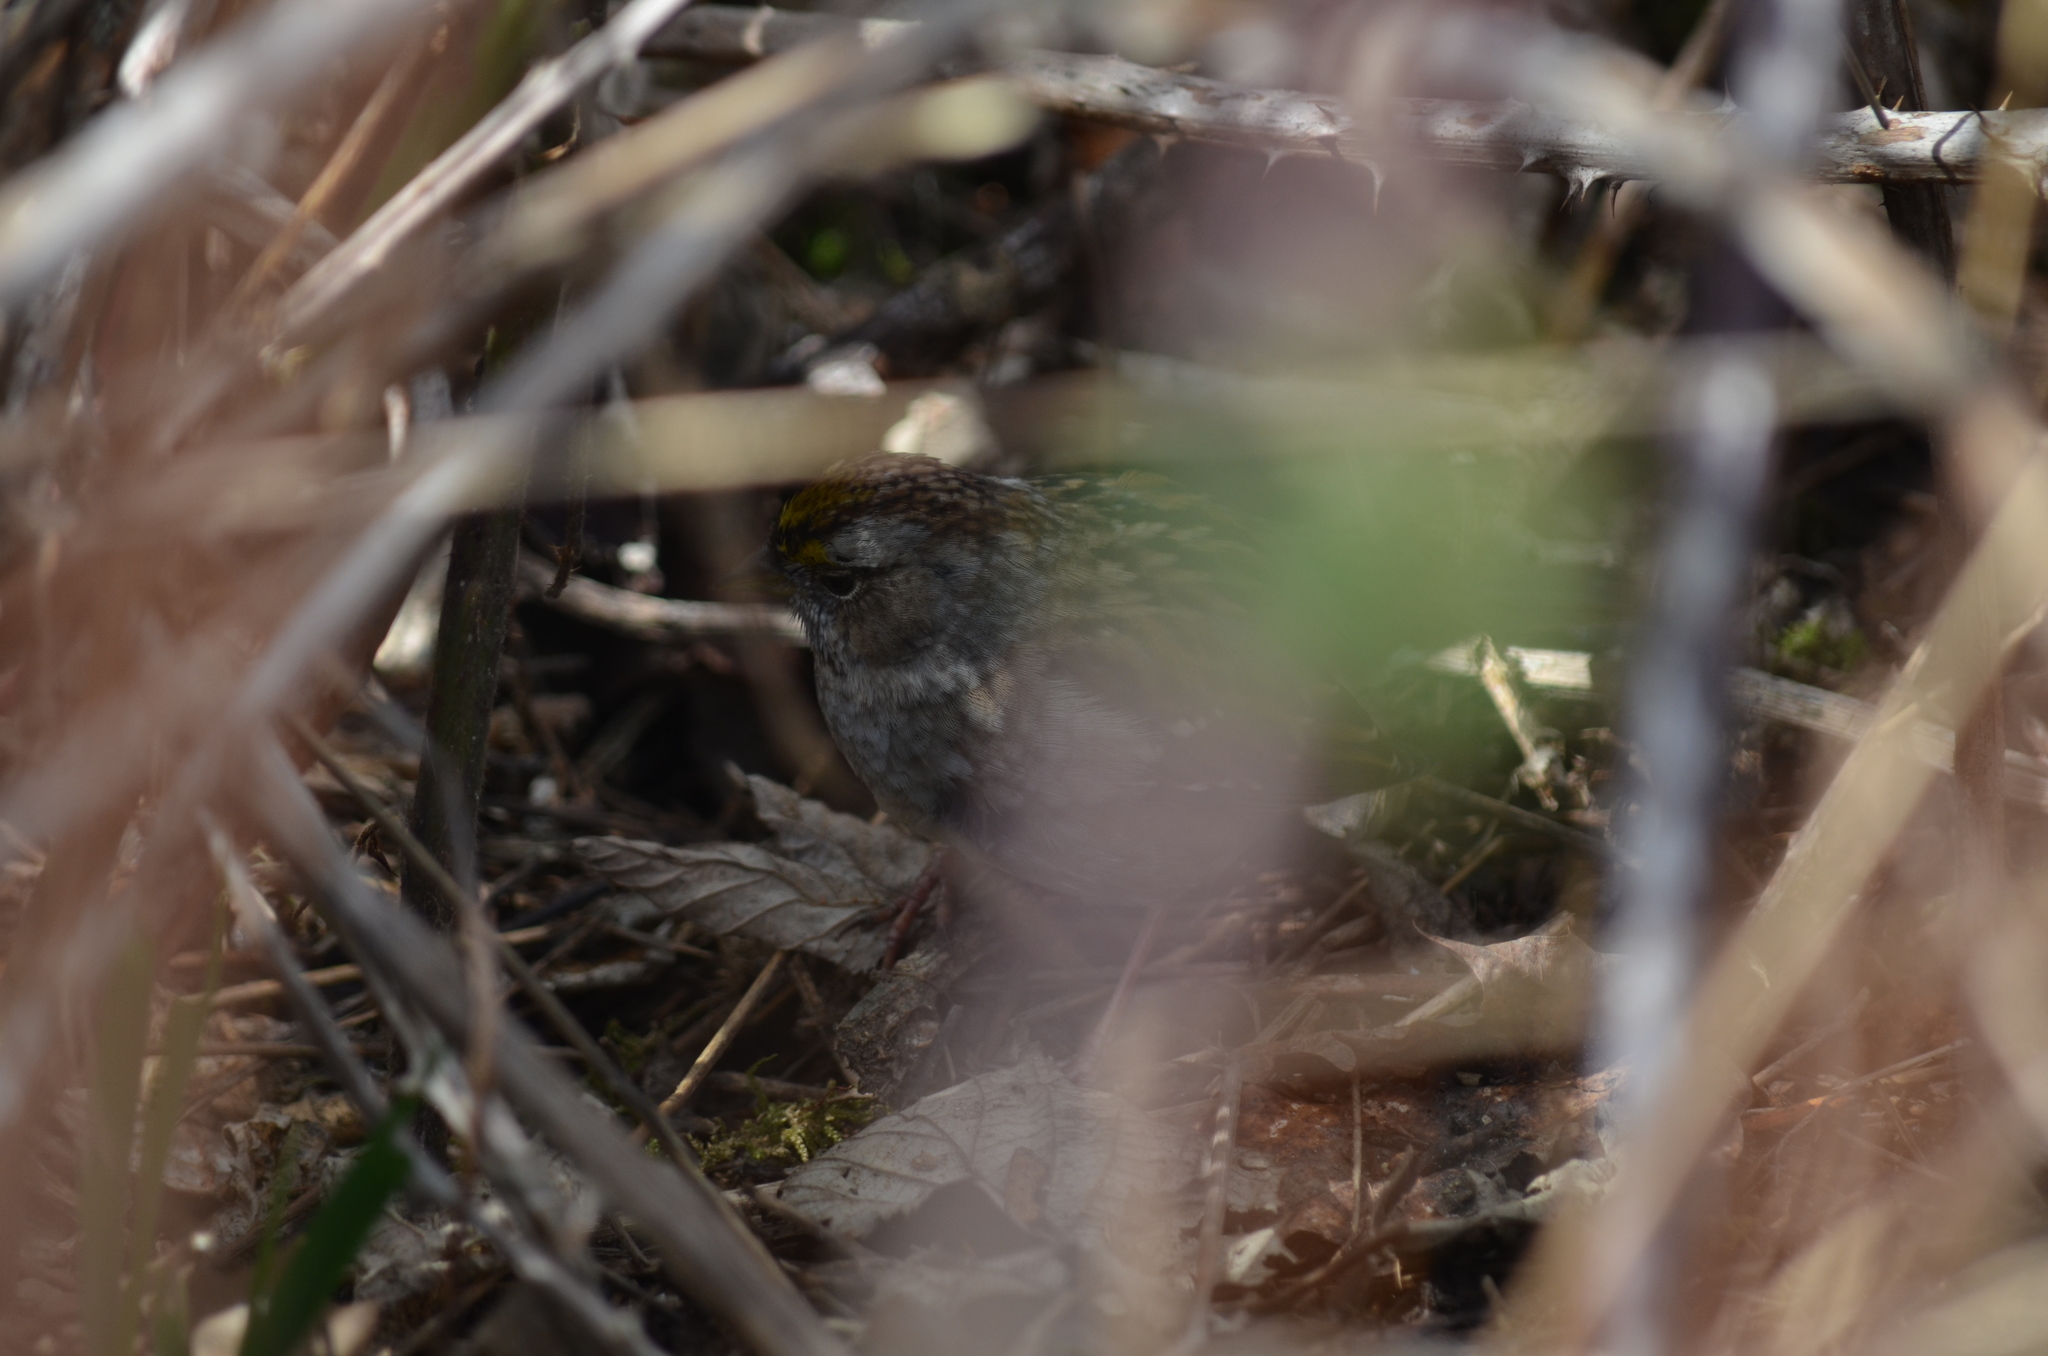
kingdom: Animalia
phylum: Chordata
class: Aves
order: Passeriformes
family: Passerellidae
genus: Zonotrichia
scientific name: Zonotrichia atricapilla
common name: Golden-crowned sparrow
